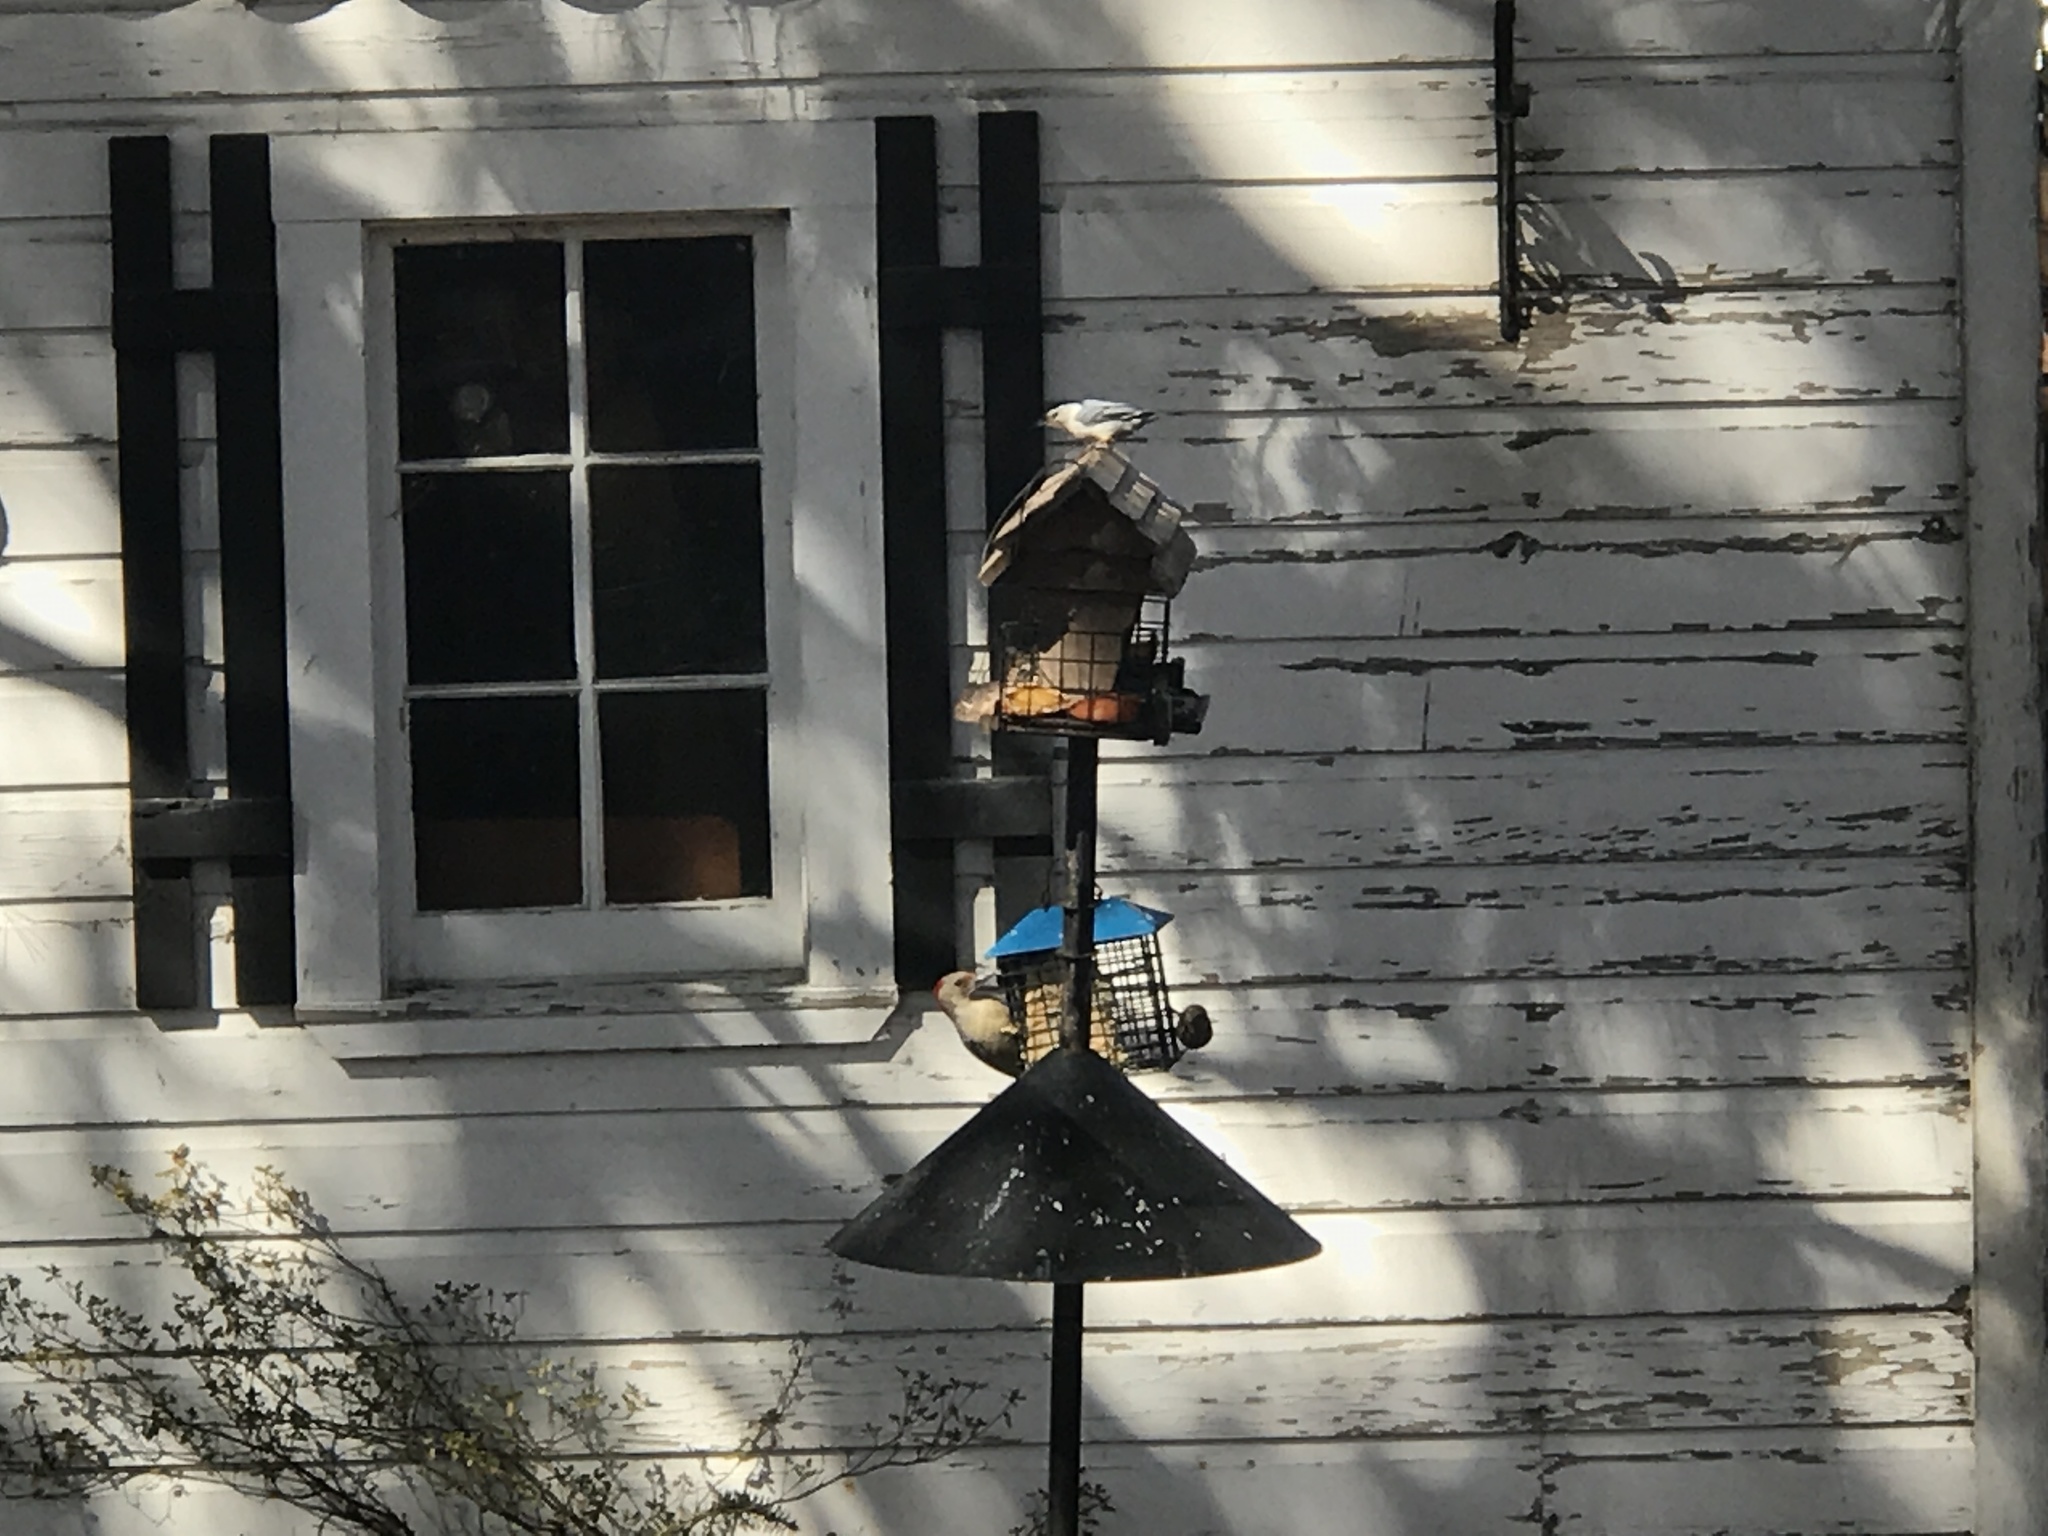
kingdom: Animalia
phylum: Chordata
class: Aves
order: Passeriformes
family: Sittidae
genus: Sitta
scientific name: Sitta carolinensis
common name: White-breasted nuthatch
